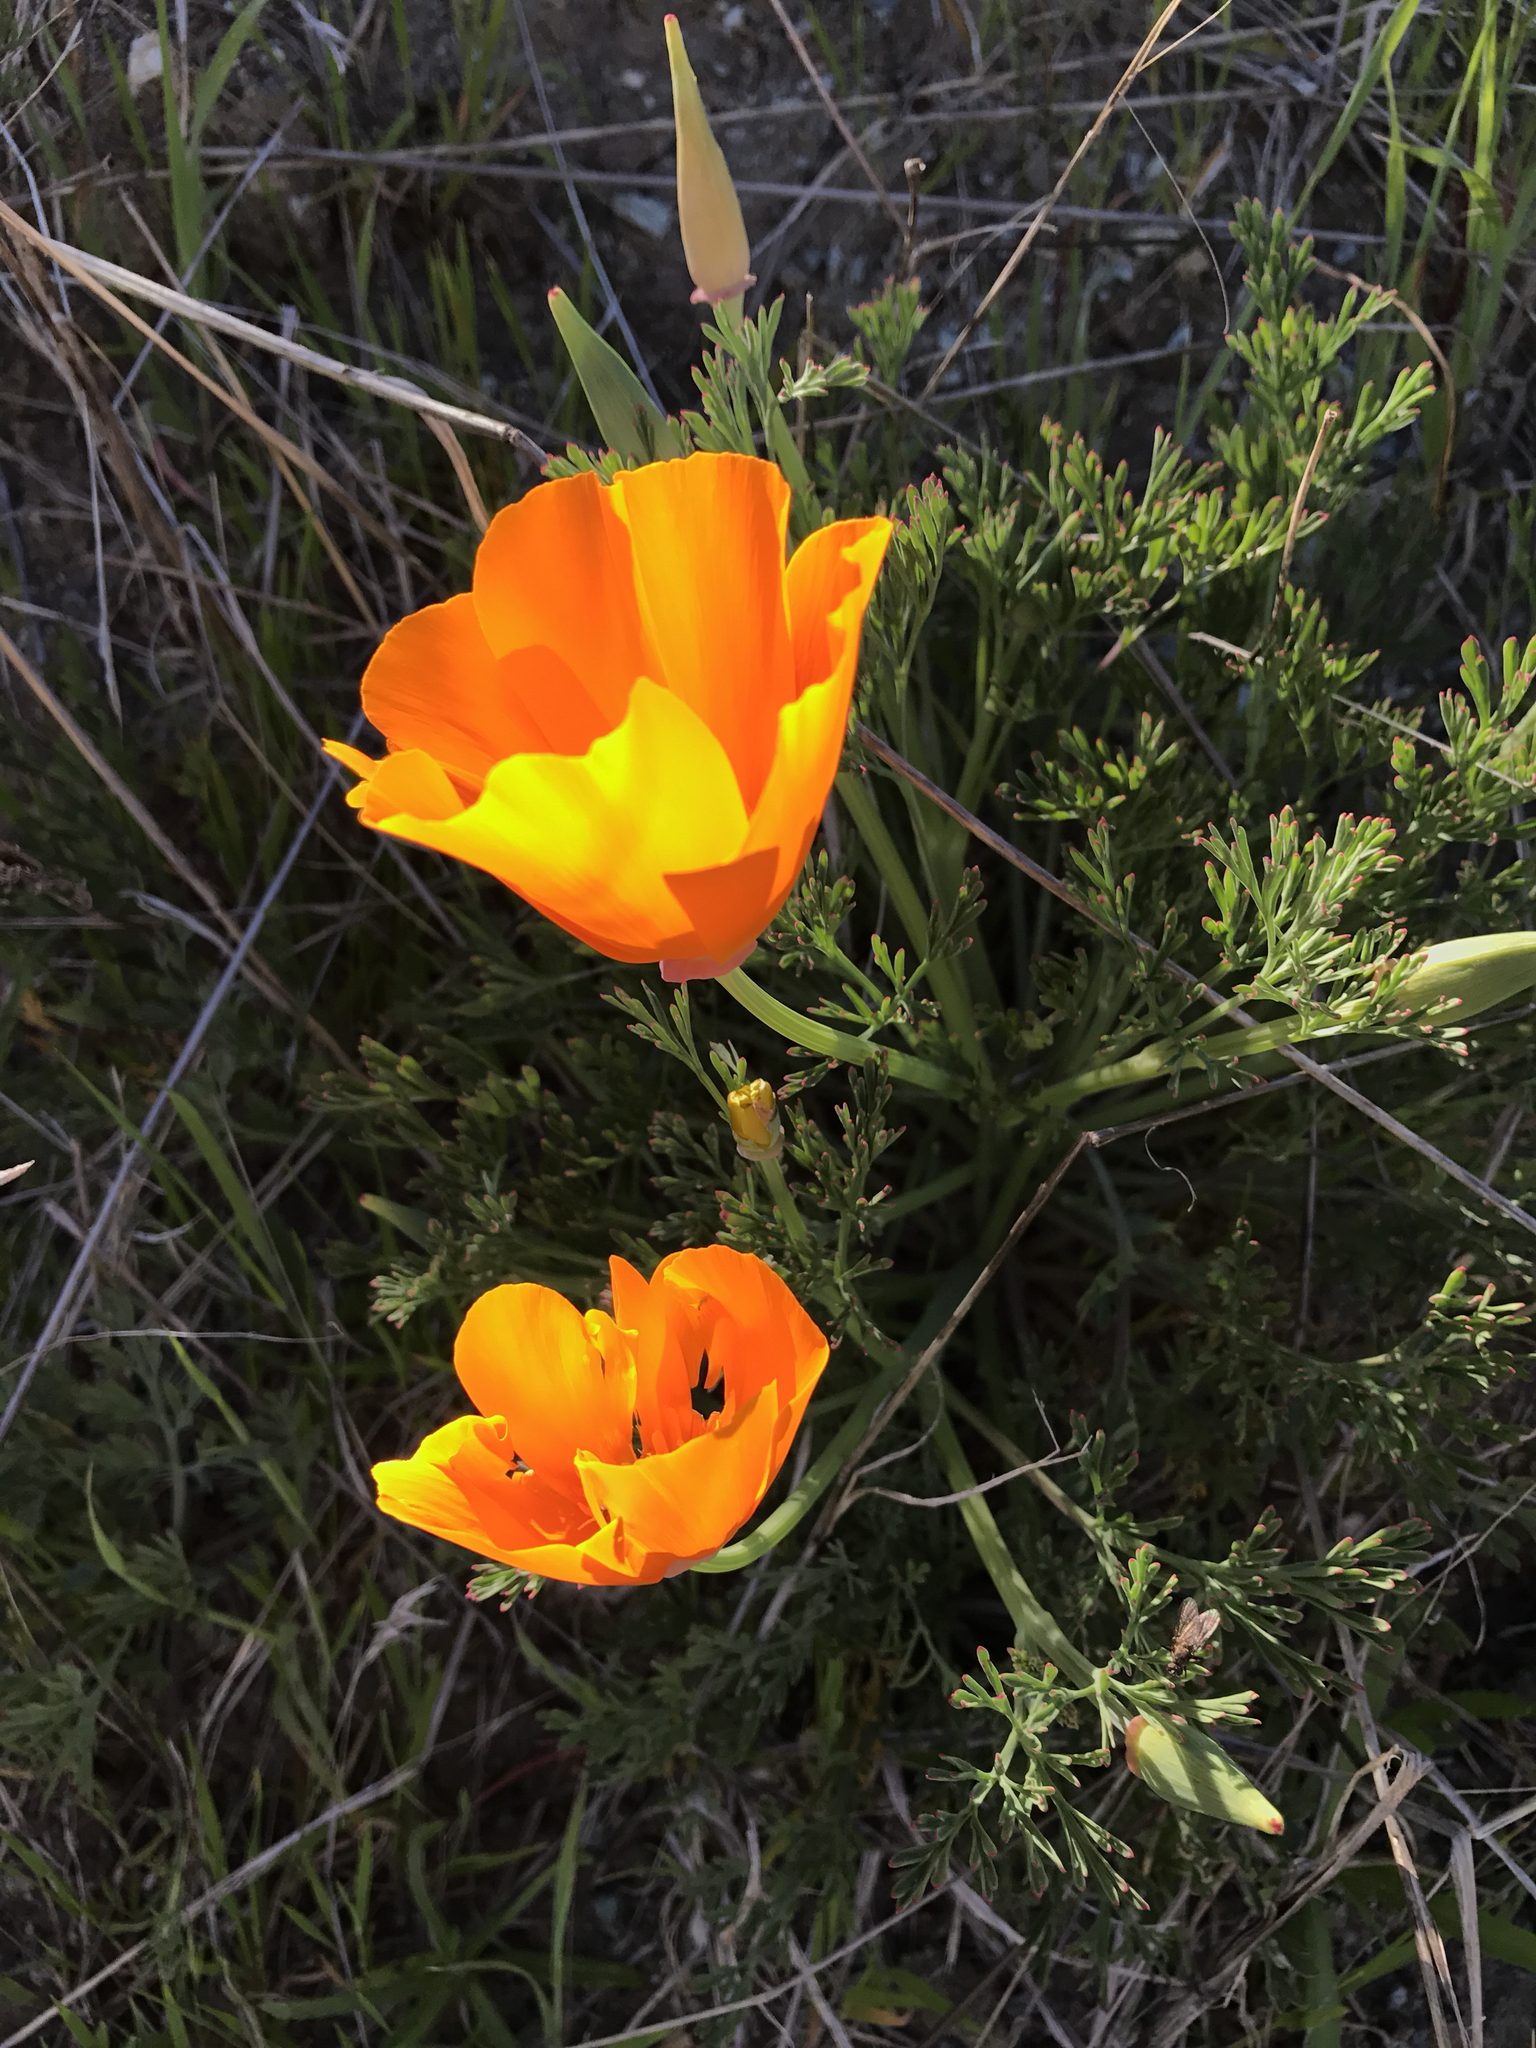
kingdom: Plantae
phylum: Tracheophyta
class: Magnoliopsida
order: Ranunculales
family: Papaveraceae
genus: Eschscholzia
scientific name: Eschscholzia californica
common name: California poppy
